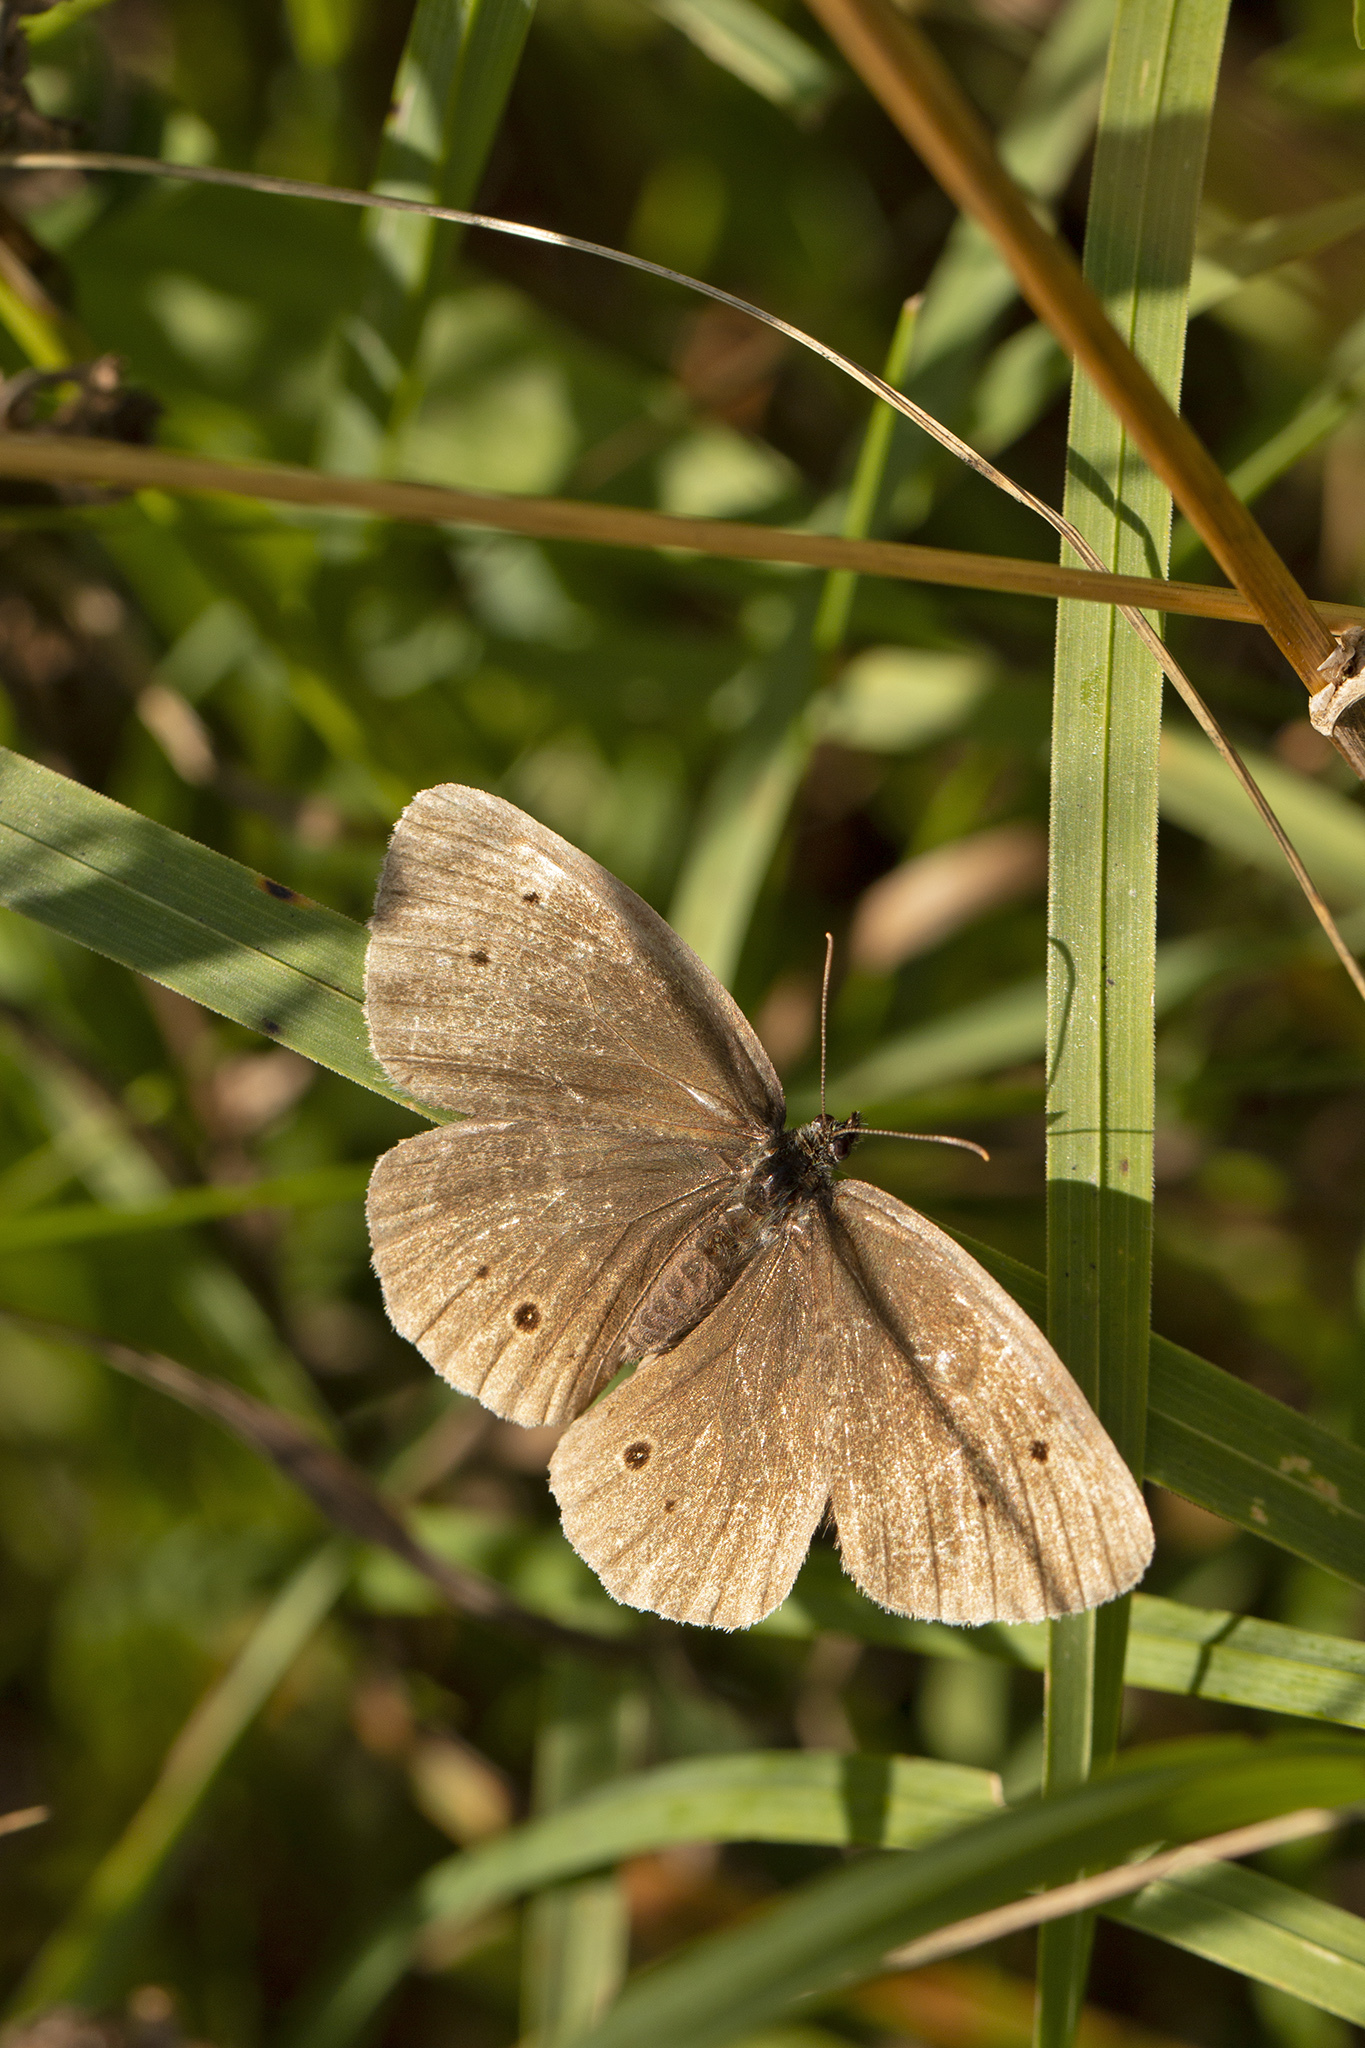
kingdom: Animalia
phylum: Arthropoda
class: Insecta
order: Lepidoptera
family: Nymphalidae
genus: Aphantopus
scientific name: Aphantopus hyperantus
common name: Ringlet
